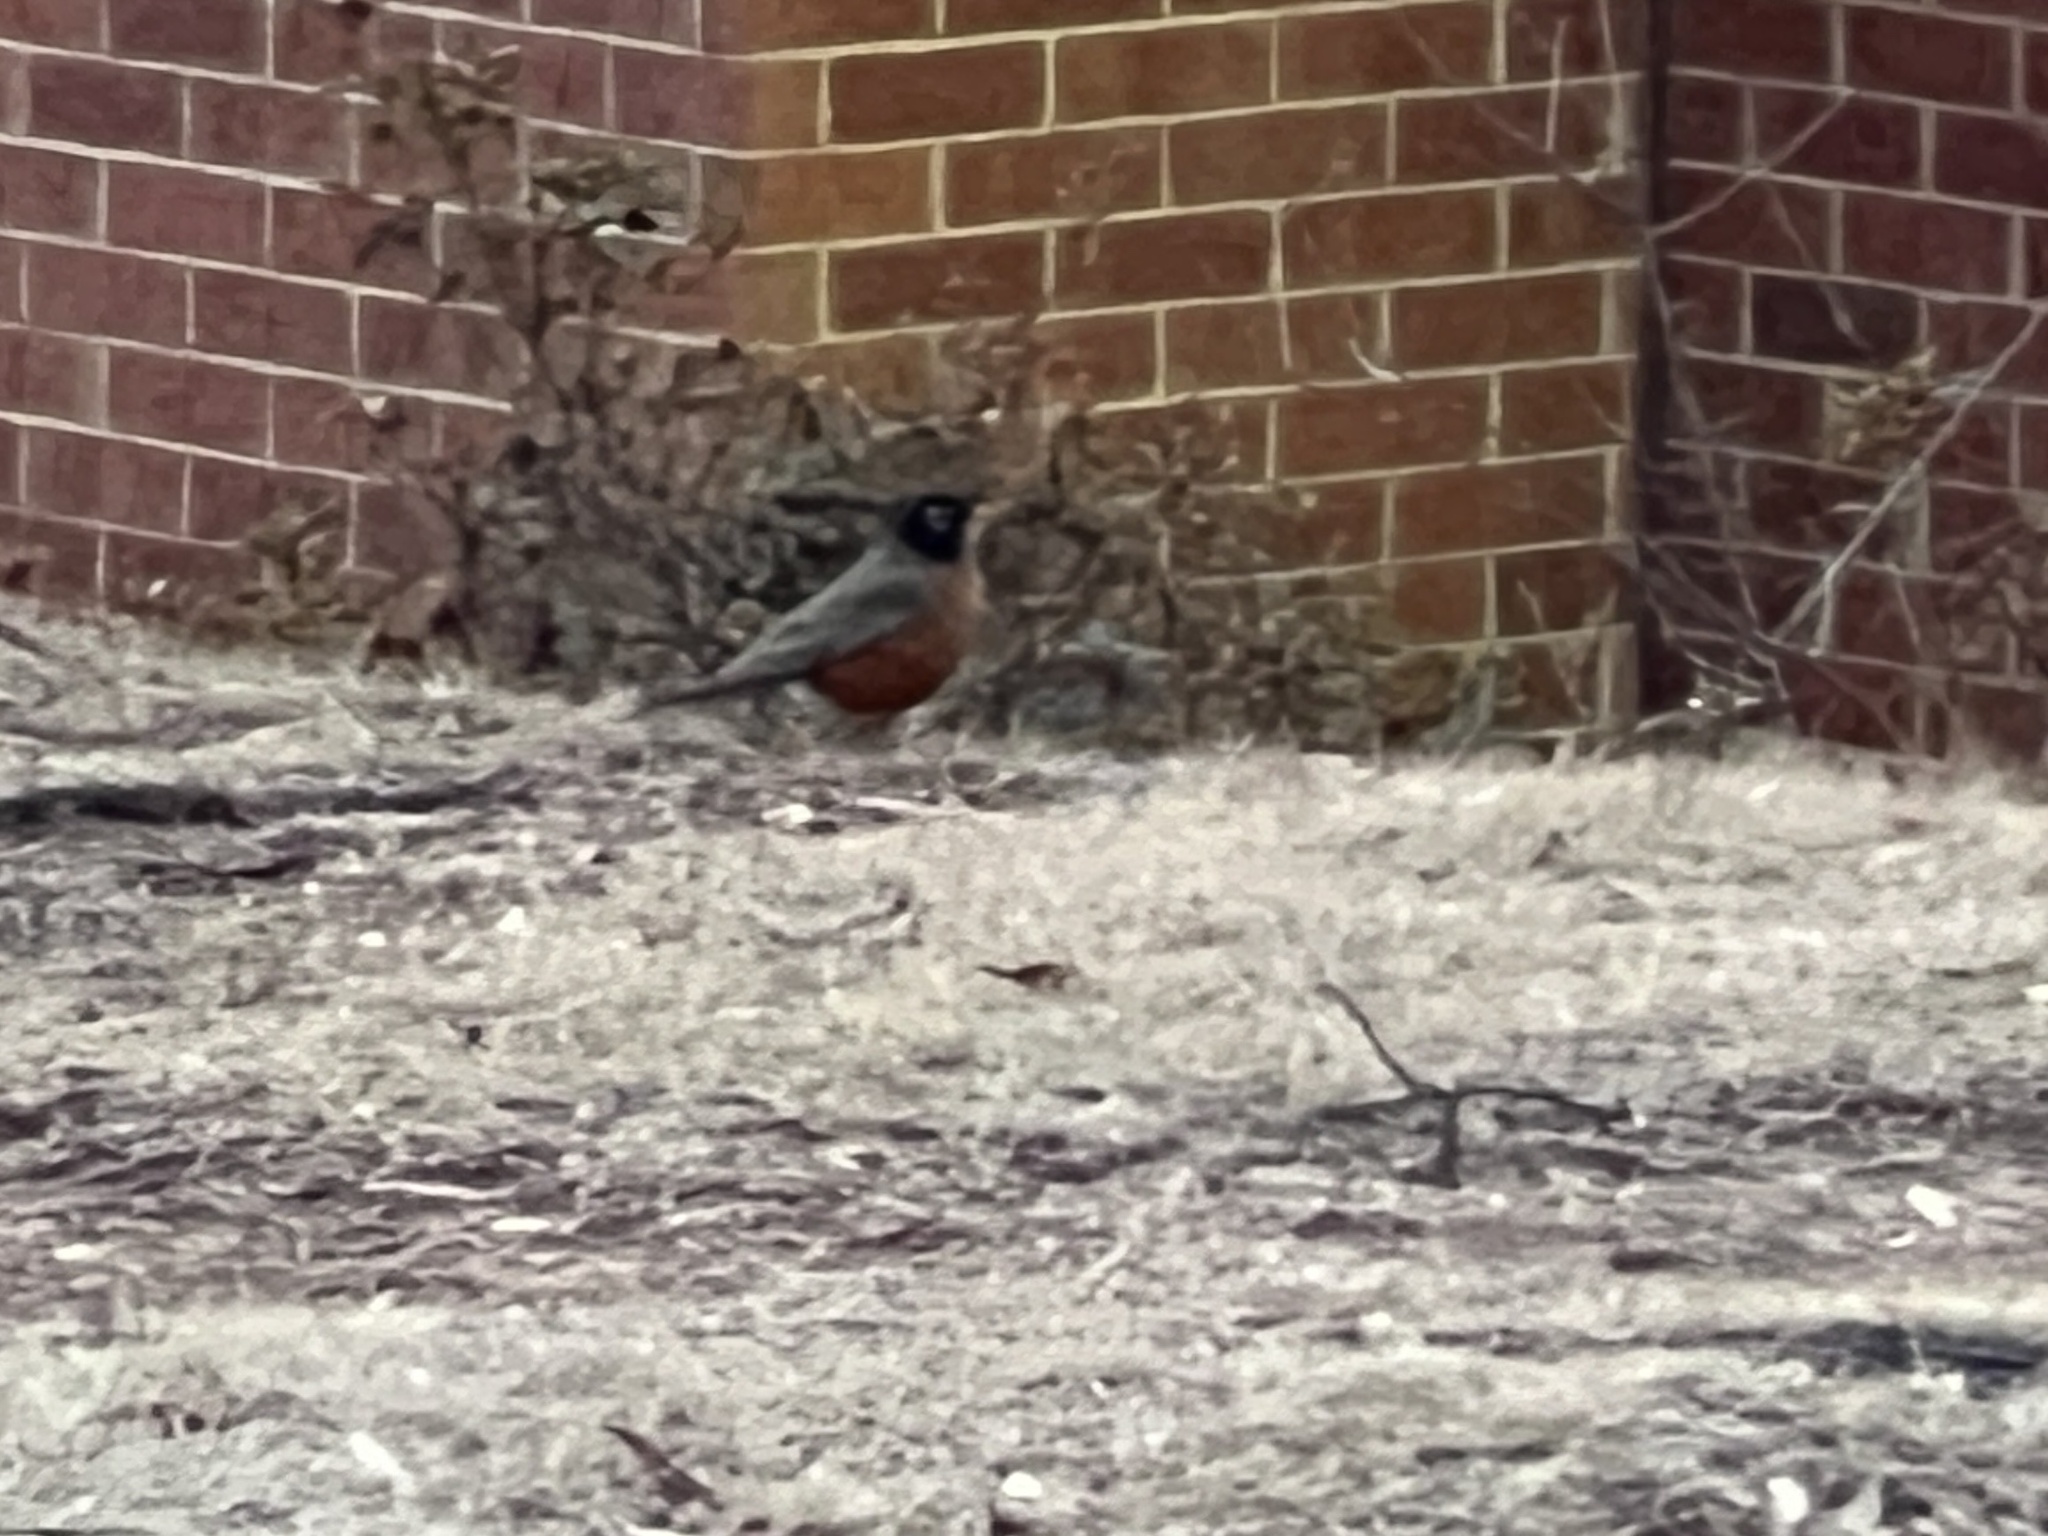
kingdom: Animalia
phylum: Chordata
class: Aves
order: Passeriformes
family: Turdidae
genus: Turdus
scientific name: Turdus migratorius
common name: American robin
